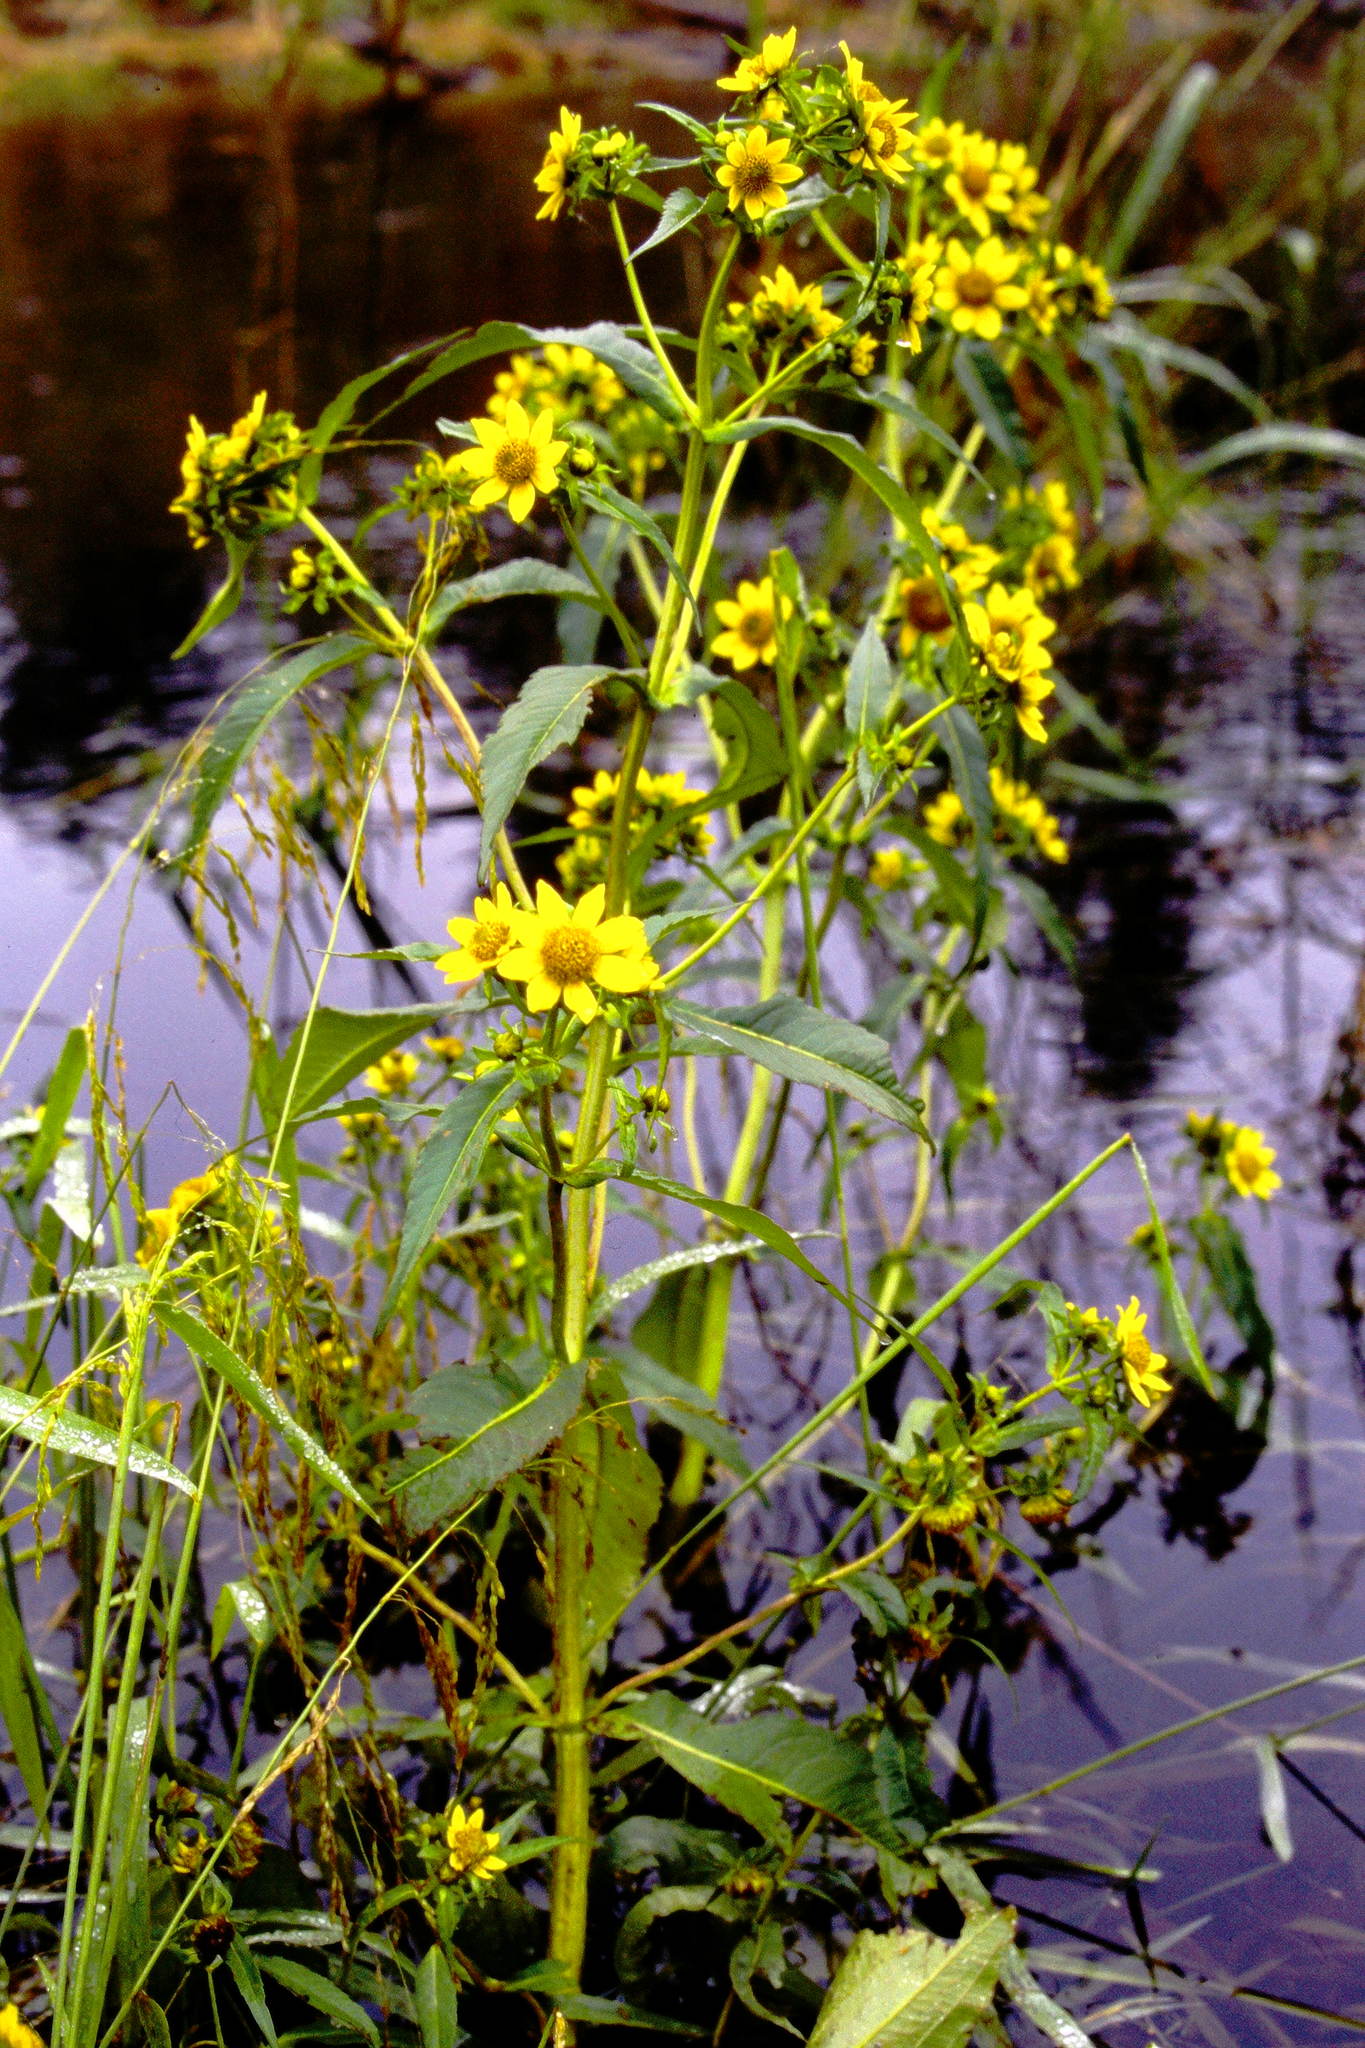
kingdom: Plantae
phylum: Tracheophyta
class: Magnoliopsida
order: Asterales
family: Asteraceae
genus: Bidens
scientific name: Bidens cernua
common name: Nodding bur-marigold
